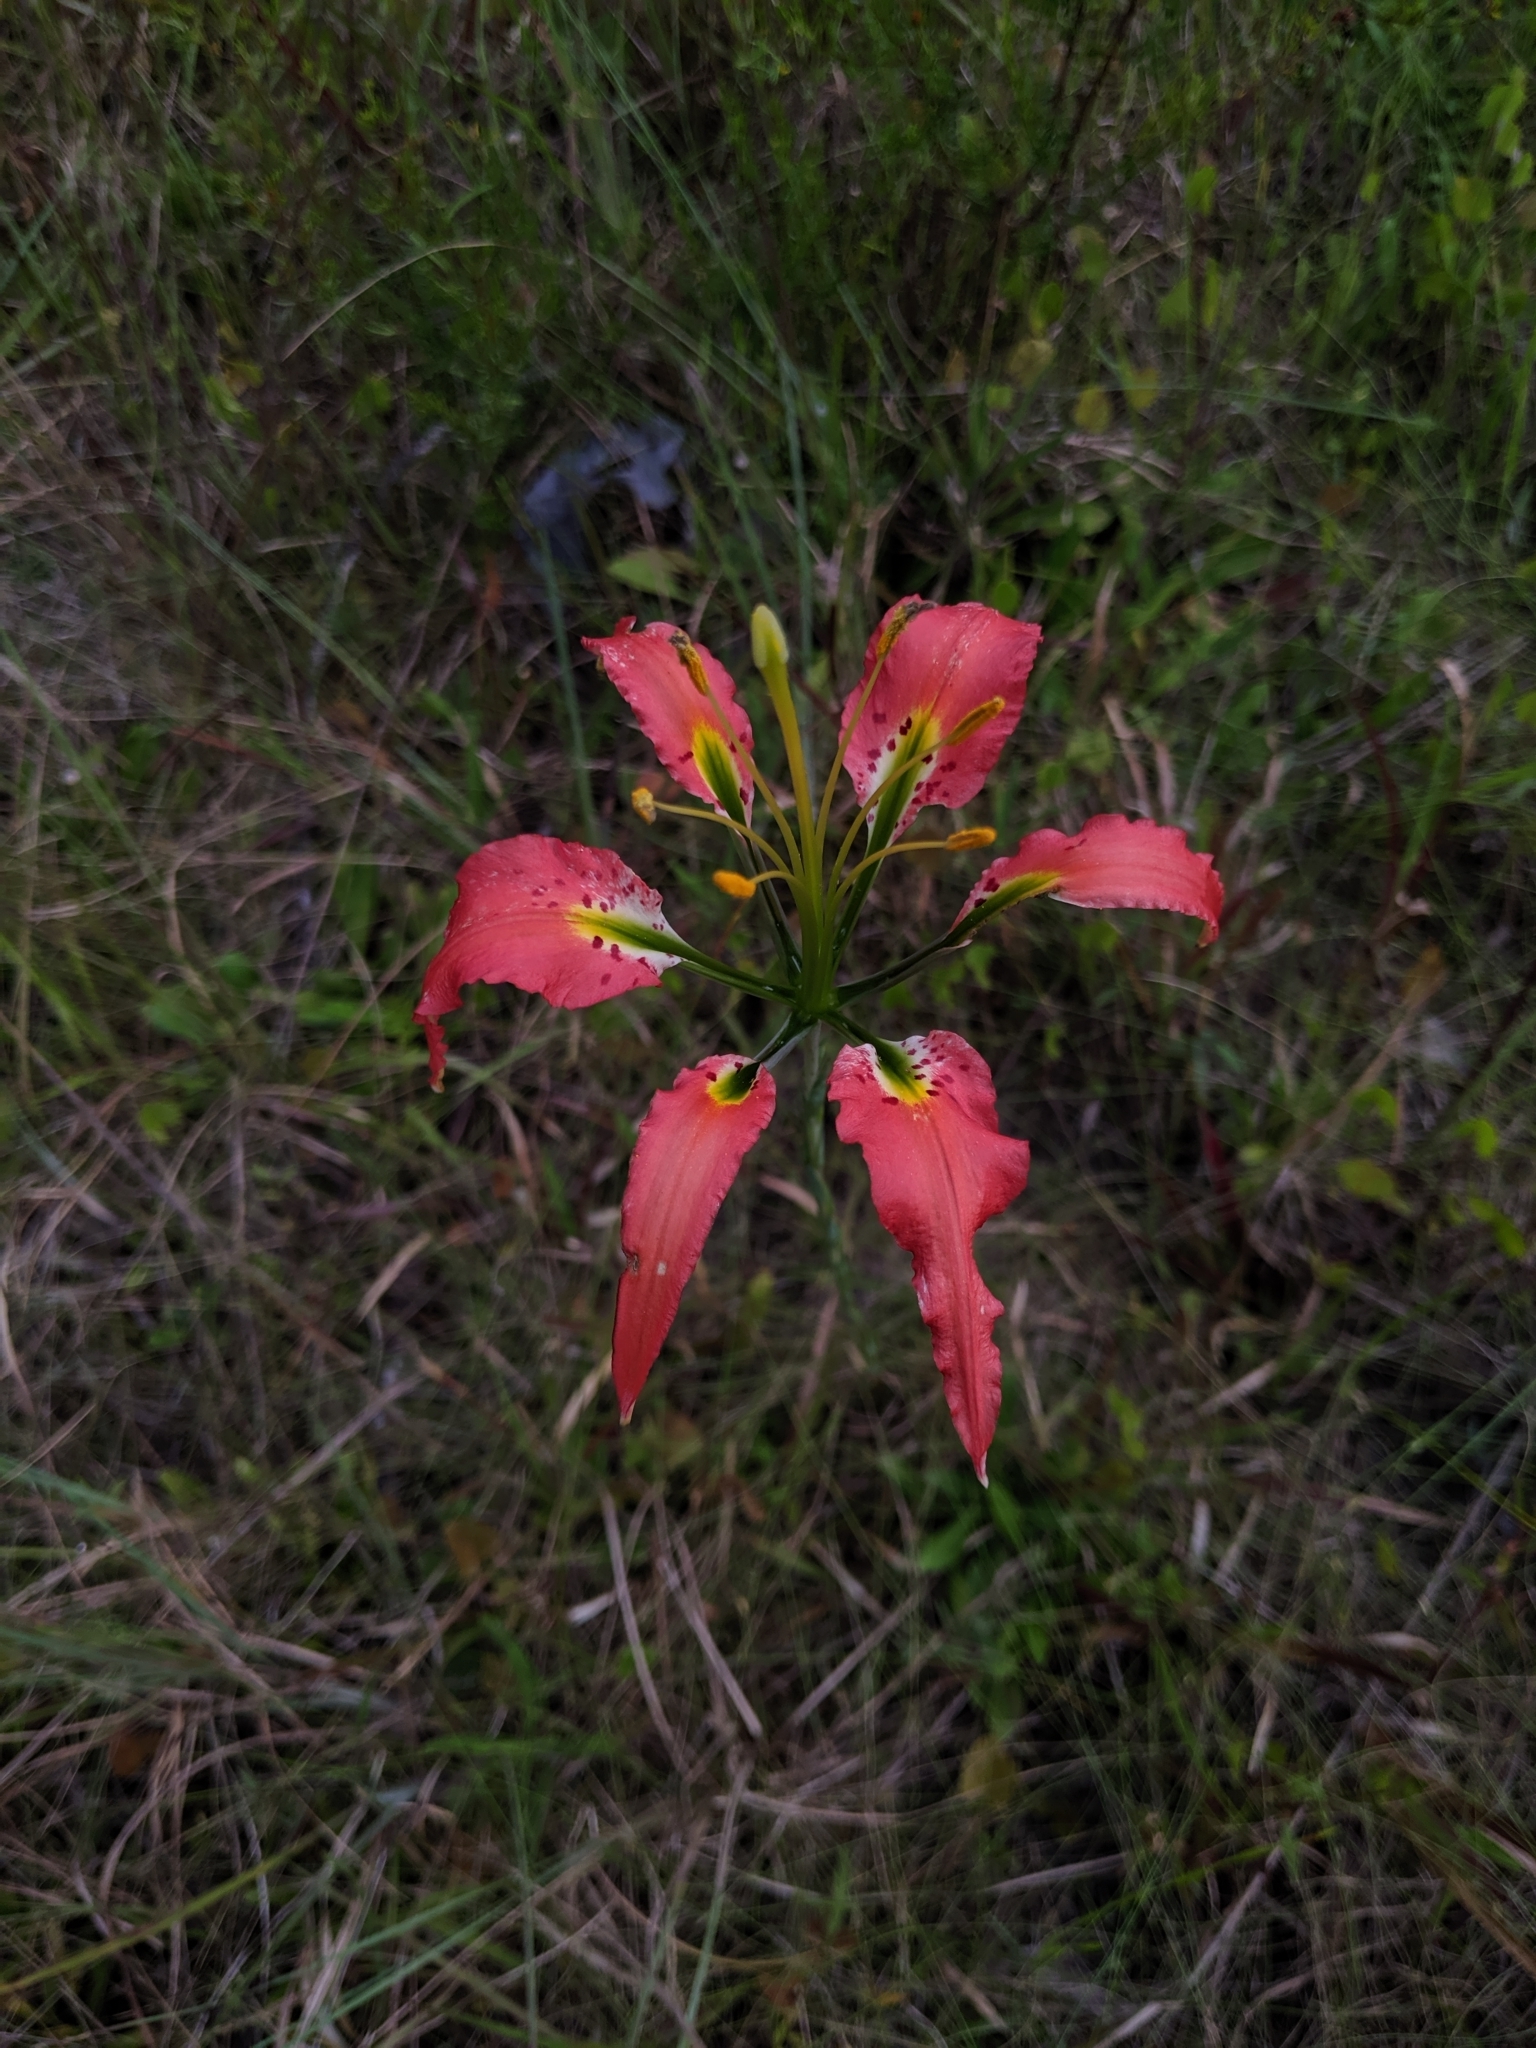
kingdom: Plantae
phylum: Tracheophyta
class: Liliopsida
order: Liliales
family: Liliaceae
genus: Lilium
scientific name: Lilium catesbaei
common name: Catesby's lily
